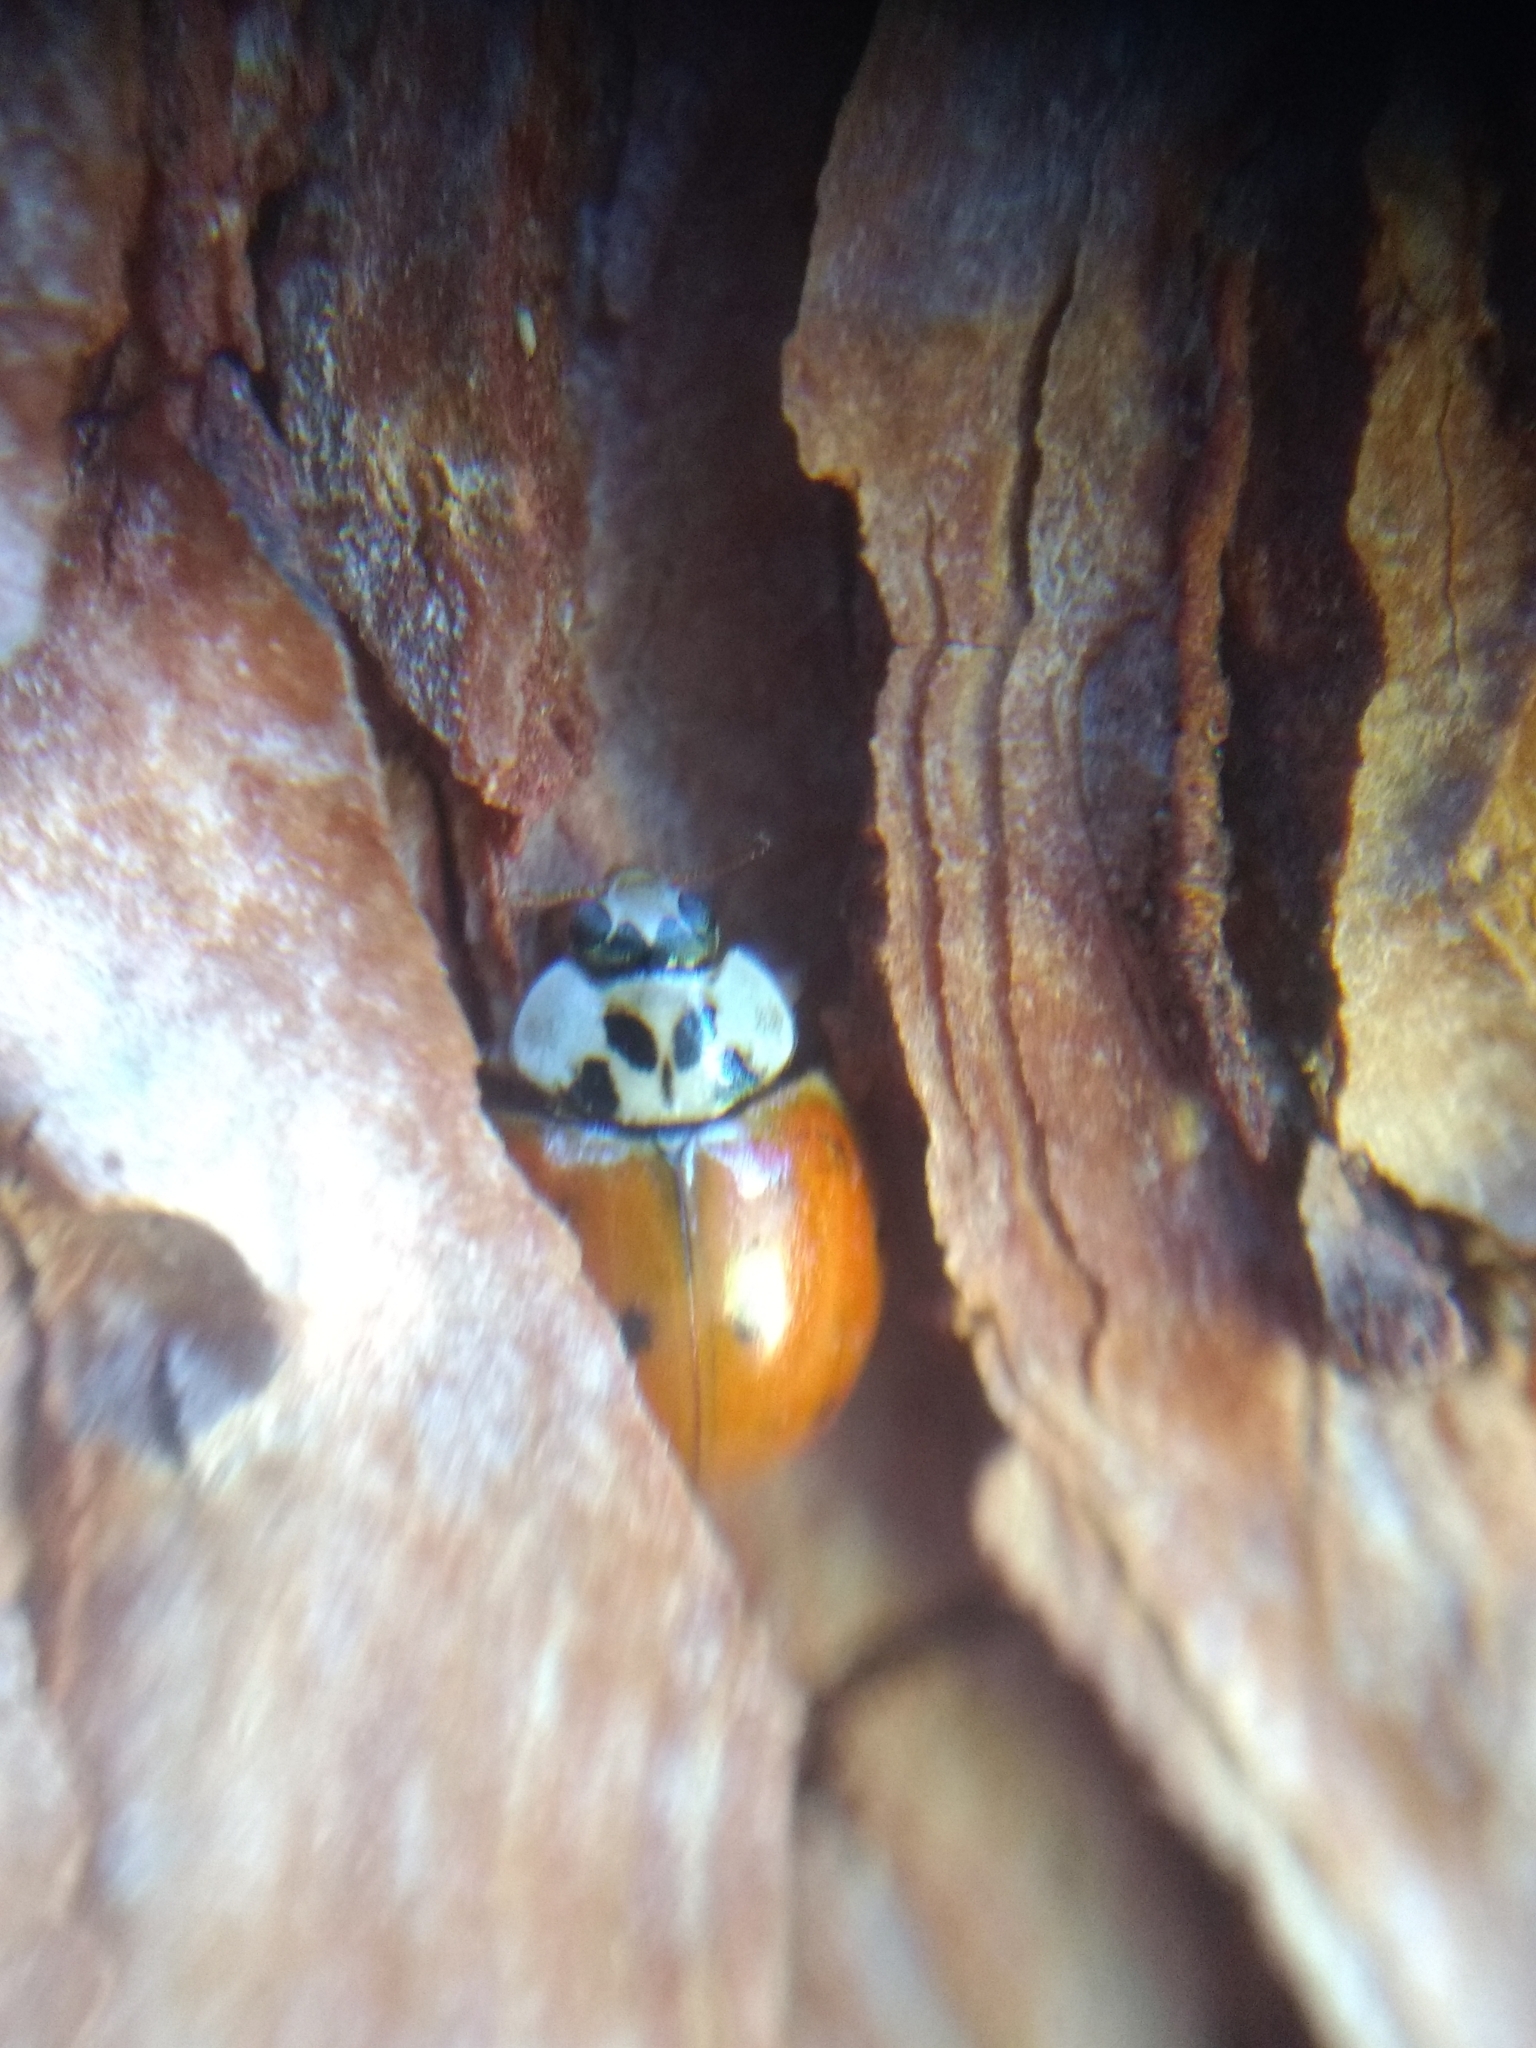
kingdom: Animalia
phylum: Arthropoda
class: Insecta
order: Coleoptera
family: Coccinellidae
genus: Harmonia
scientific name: Harmonia axyridis
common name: Harlequin ladybird
